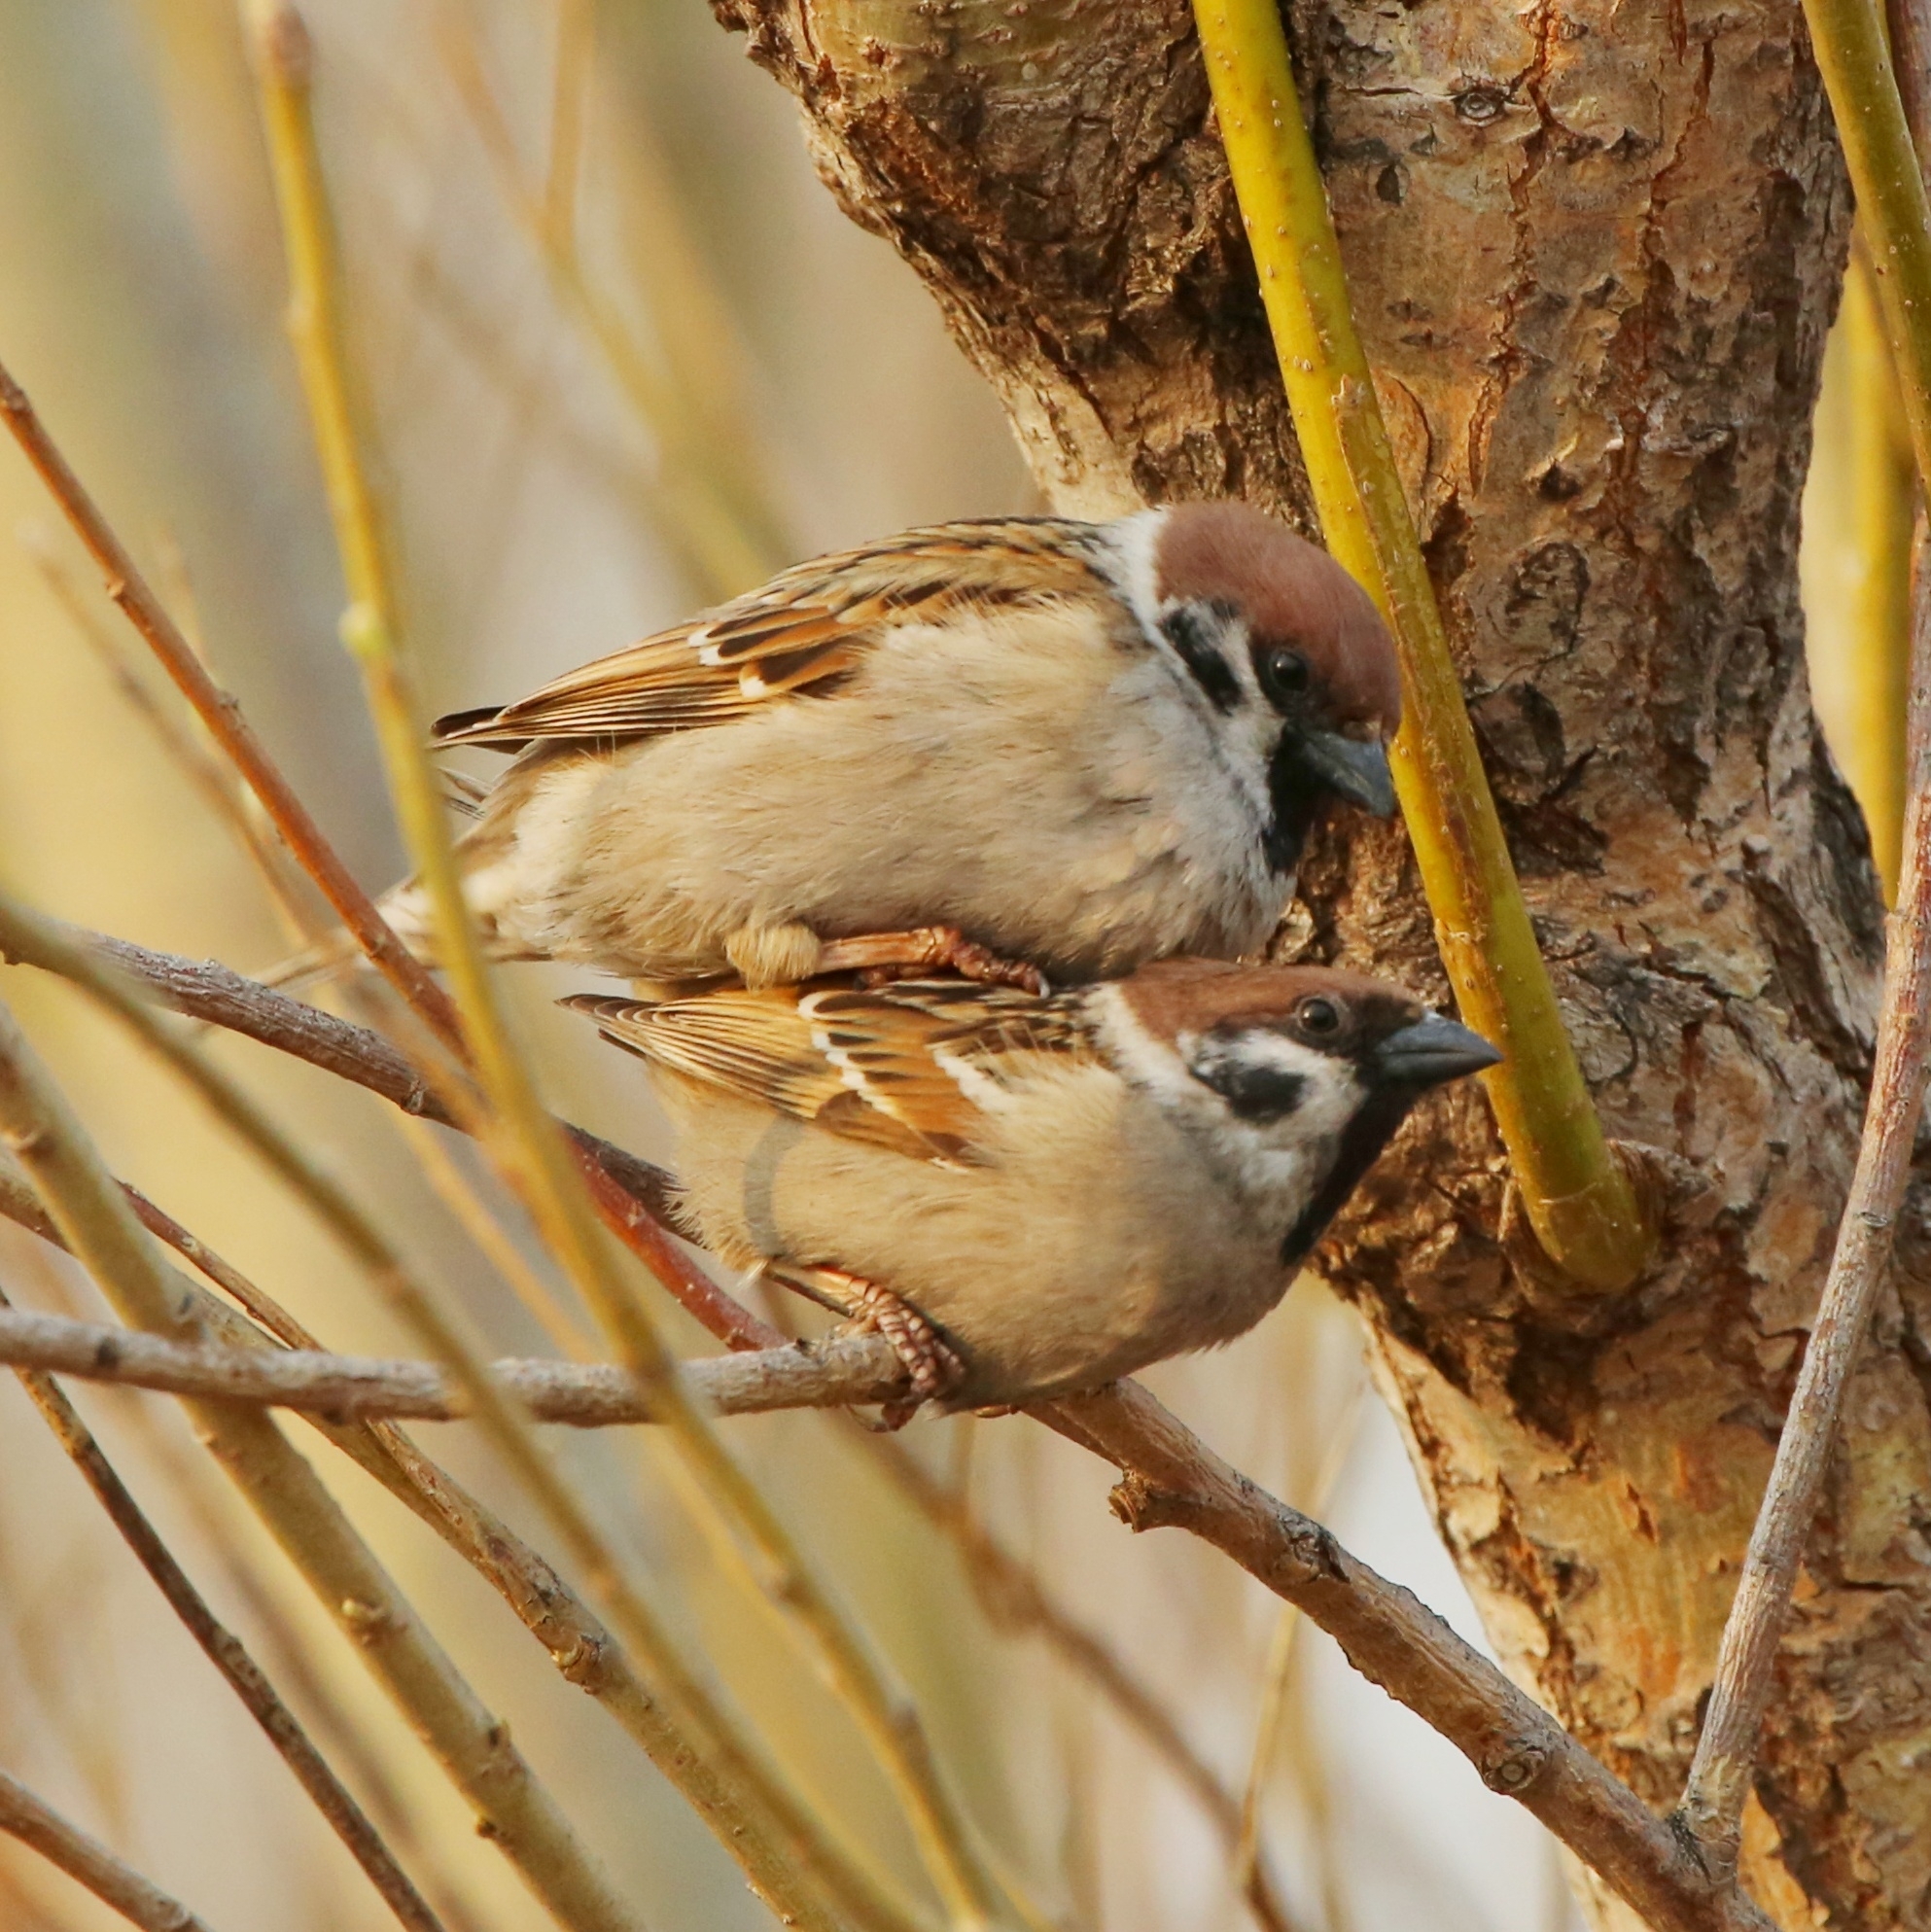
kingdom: Animalia
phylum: Chordata
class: Aves
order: Passeriformes
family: Passeridae
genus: Passer
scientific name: Passer montanus
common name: Eurasian tree sparrow
